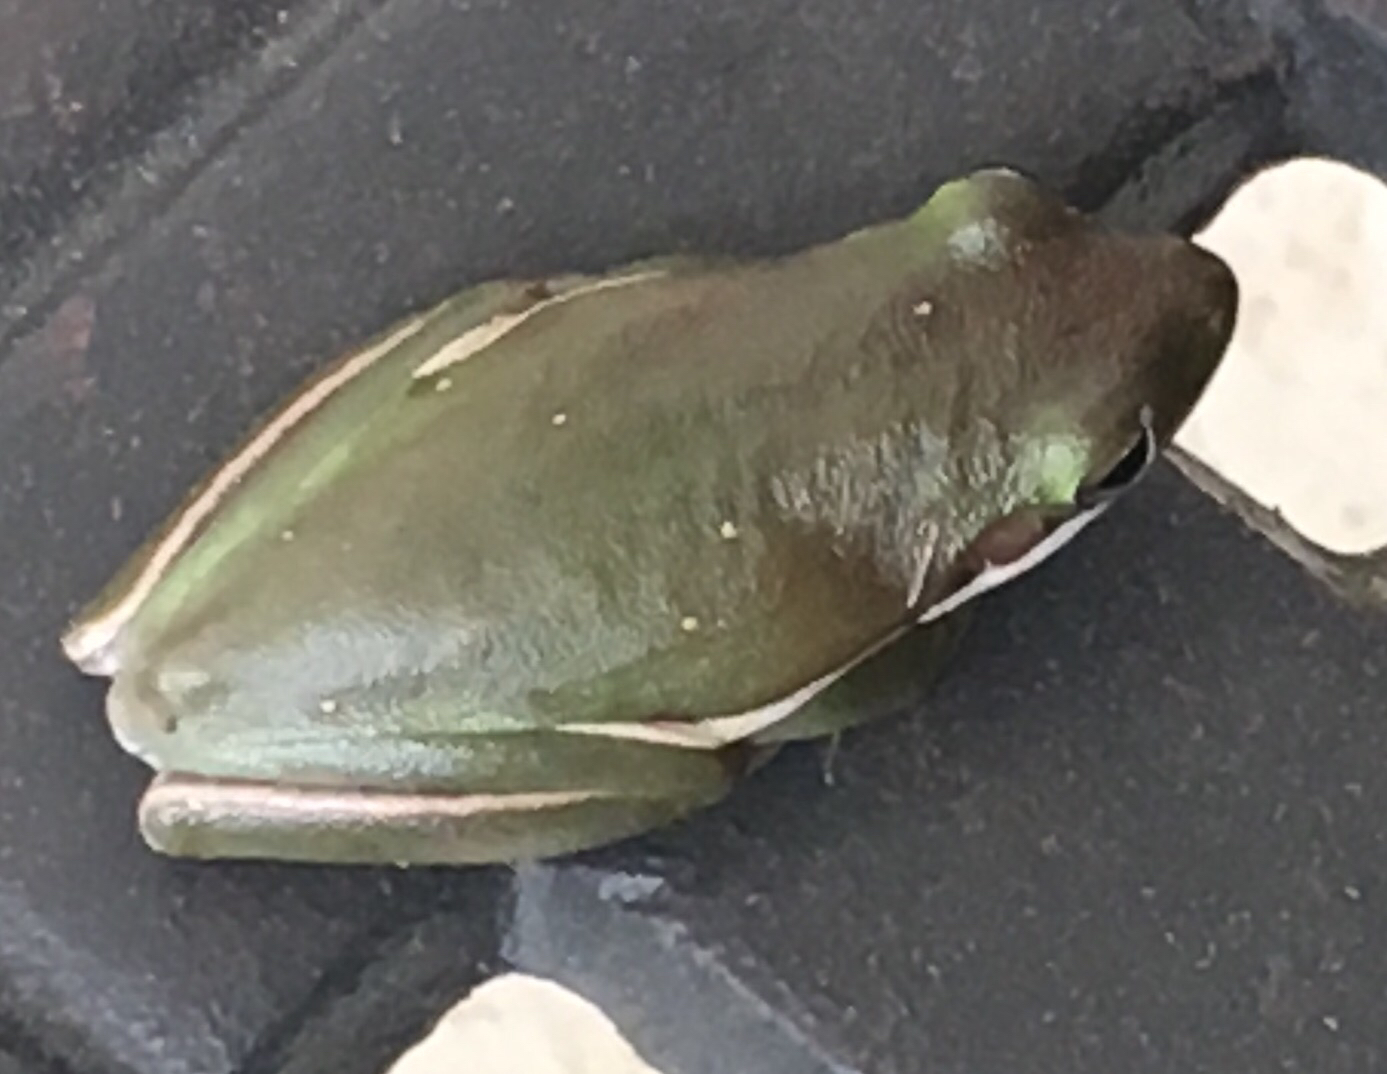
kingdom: Animalia
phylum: Chordata
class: Amphibia
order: Anura
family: Hylidae
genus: Dryophytes
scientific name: Dryophytes cinereus
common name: Green treefrog
